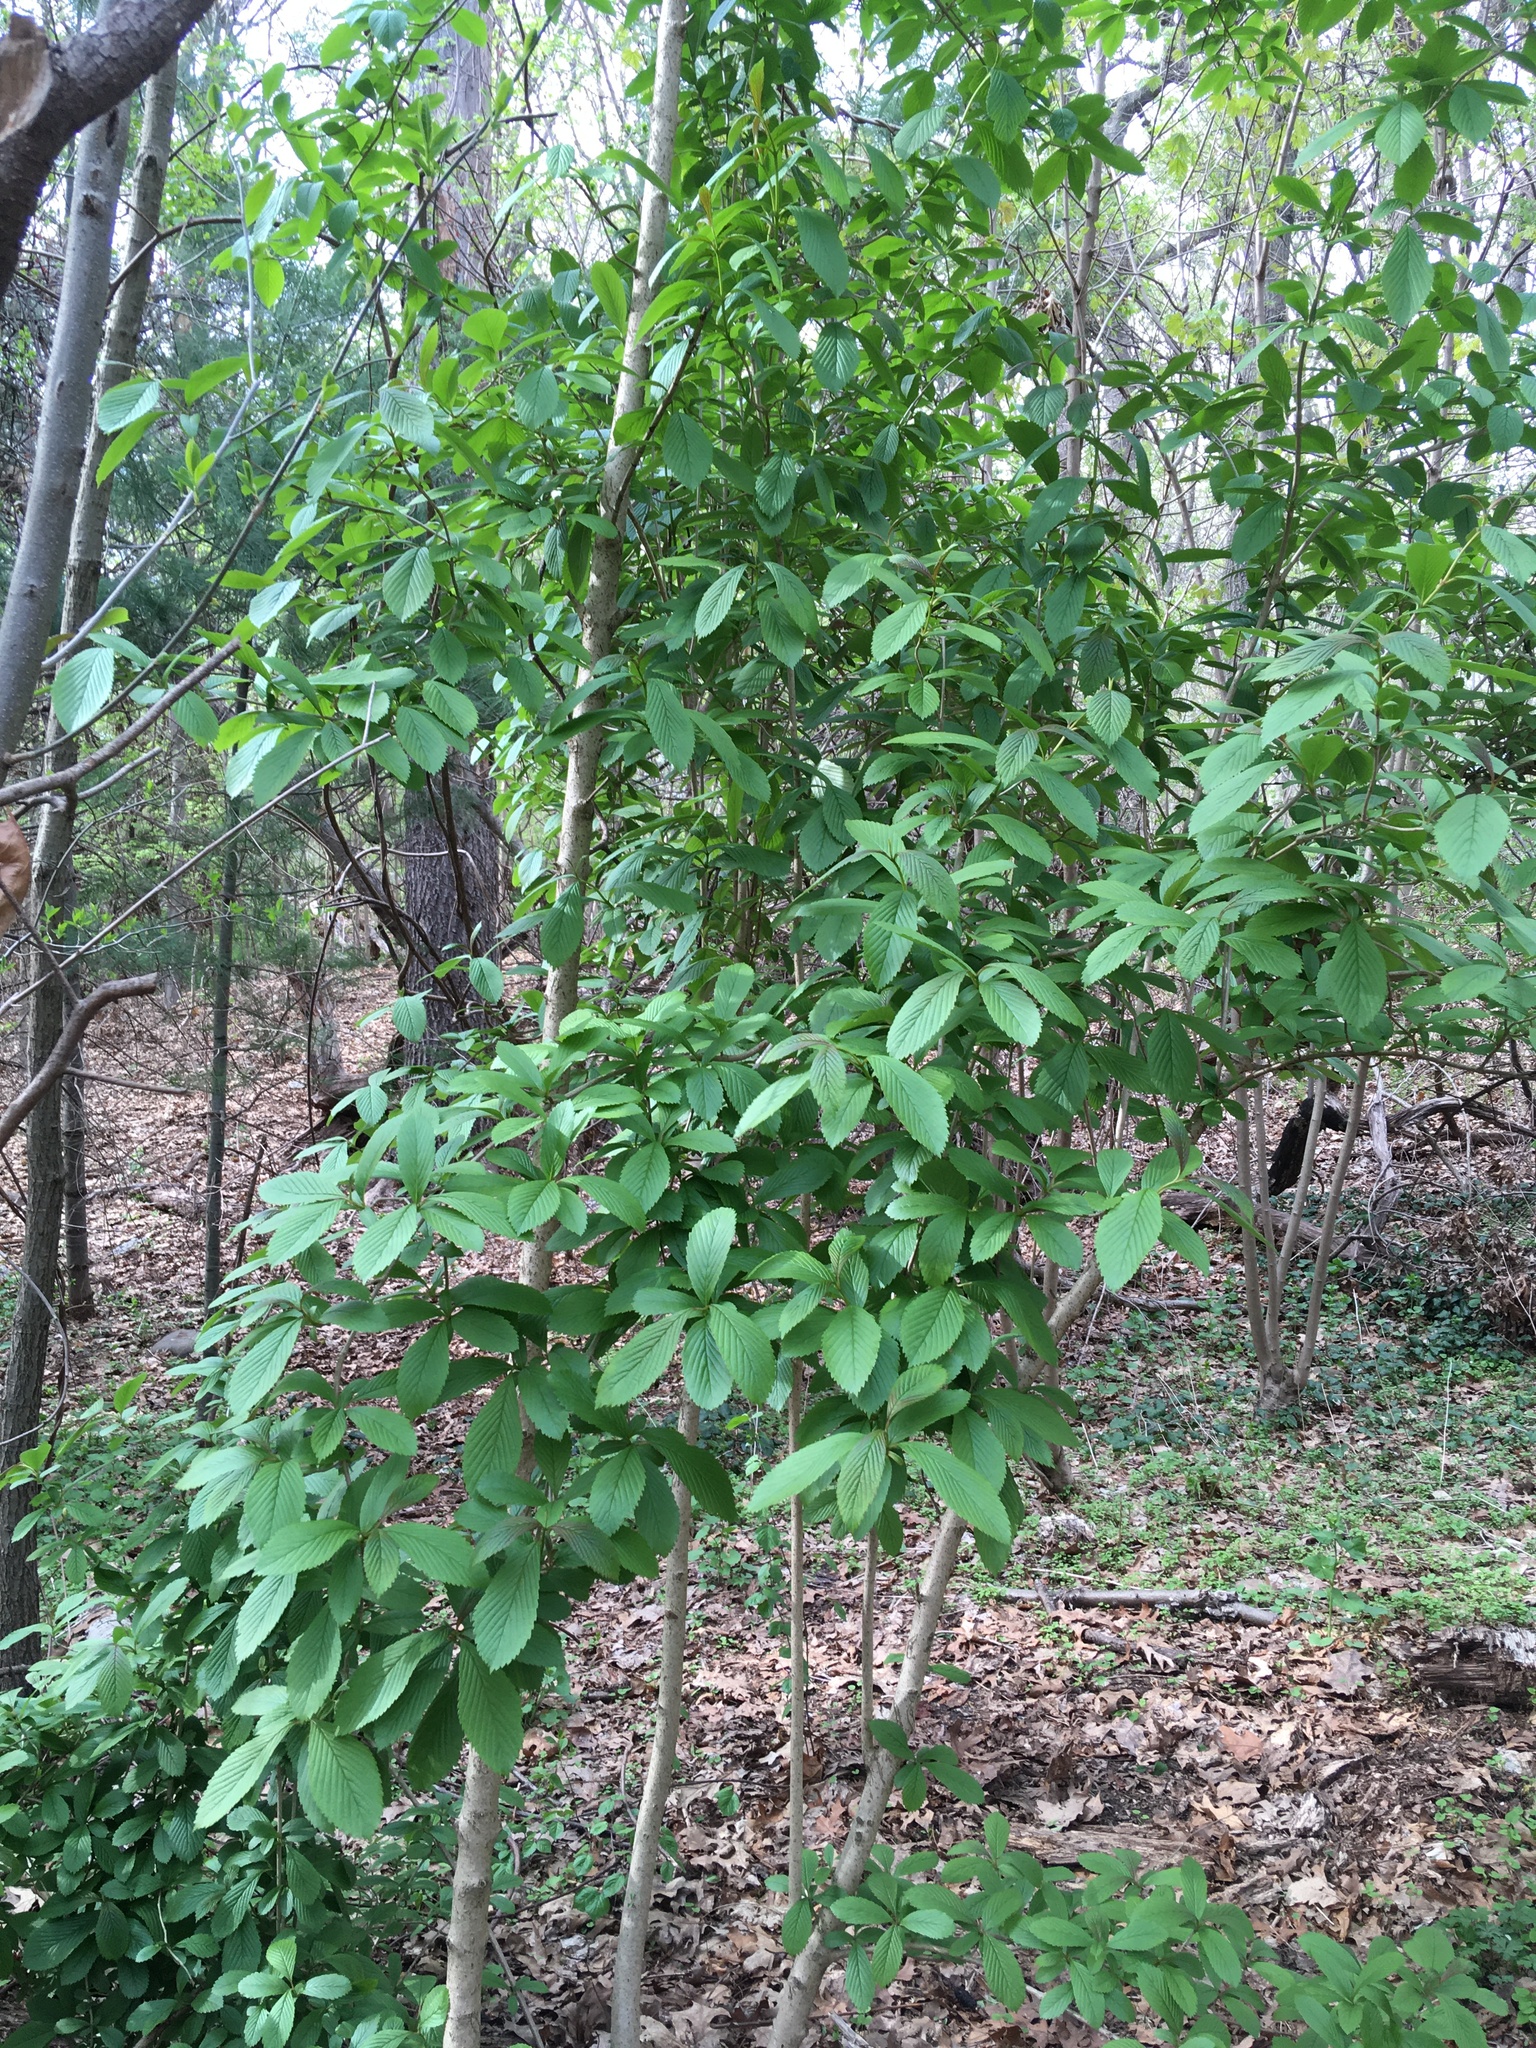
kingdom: Plantae
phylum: Tracheophyta
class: Magnoliopsida
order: Dipsacales
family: Viburnaceae
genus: Viburnum
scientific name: Viburnum sieboldii
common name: Siebold's arrowwood
